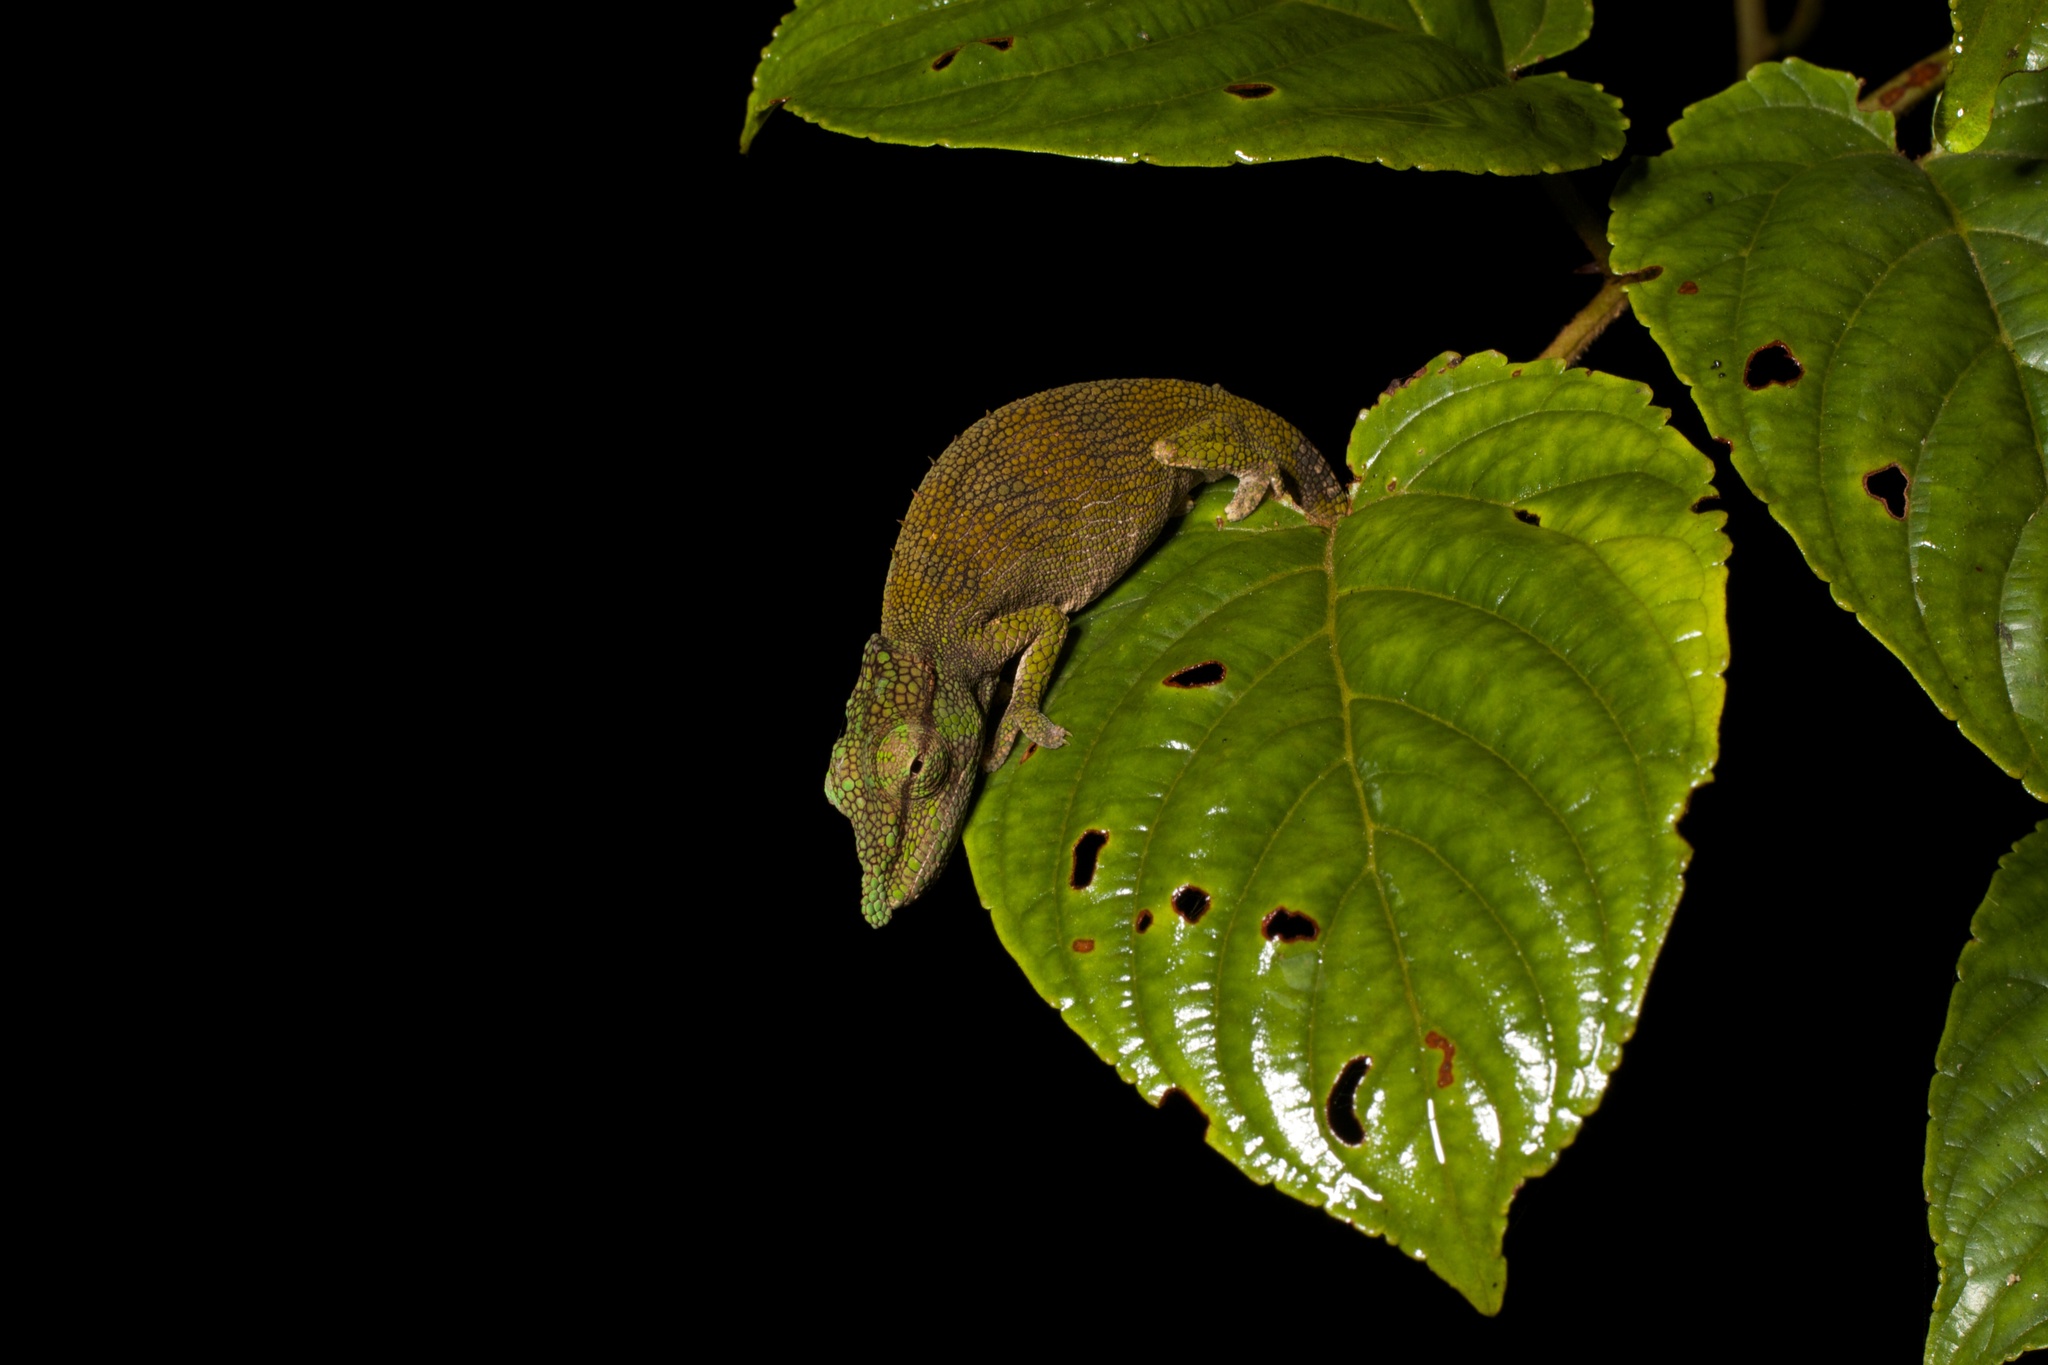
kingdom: Animalia
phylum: Chordata
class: Squamata
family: Chamaeleonidae
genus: Calumma
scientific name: Calumma tjiasmantoi
